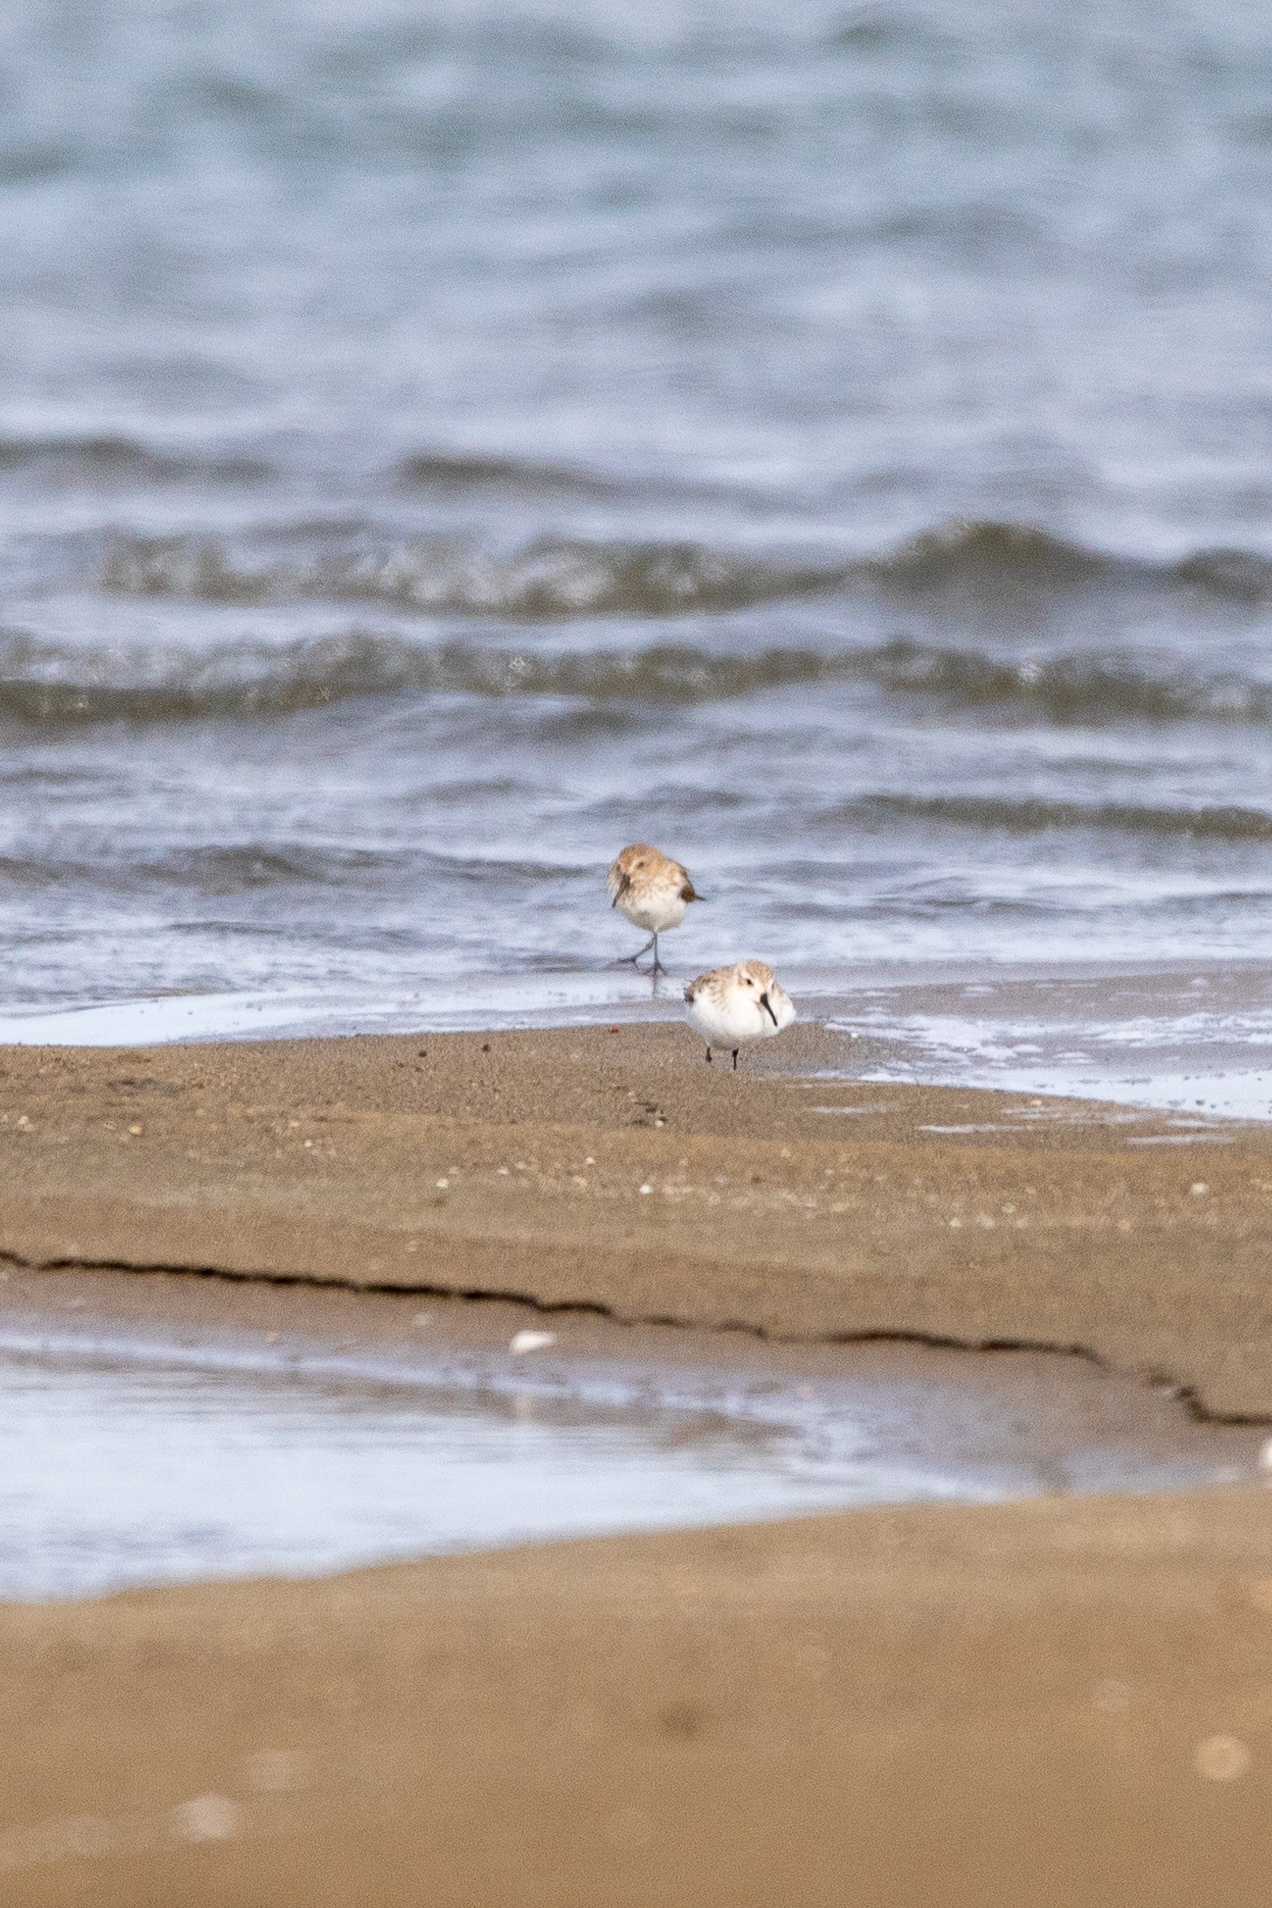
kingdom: Animalia
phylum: Chordata
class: Aves
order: Charadriiformes
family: Scolopacidae
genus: Calidris
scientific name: Calidris alpina
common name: Dunlin
